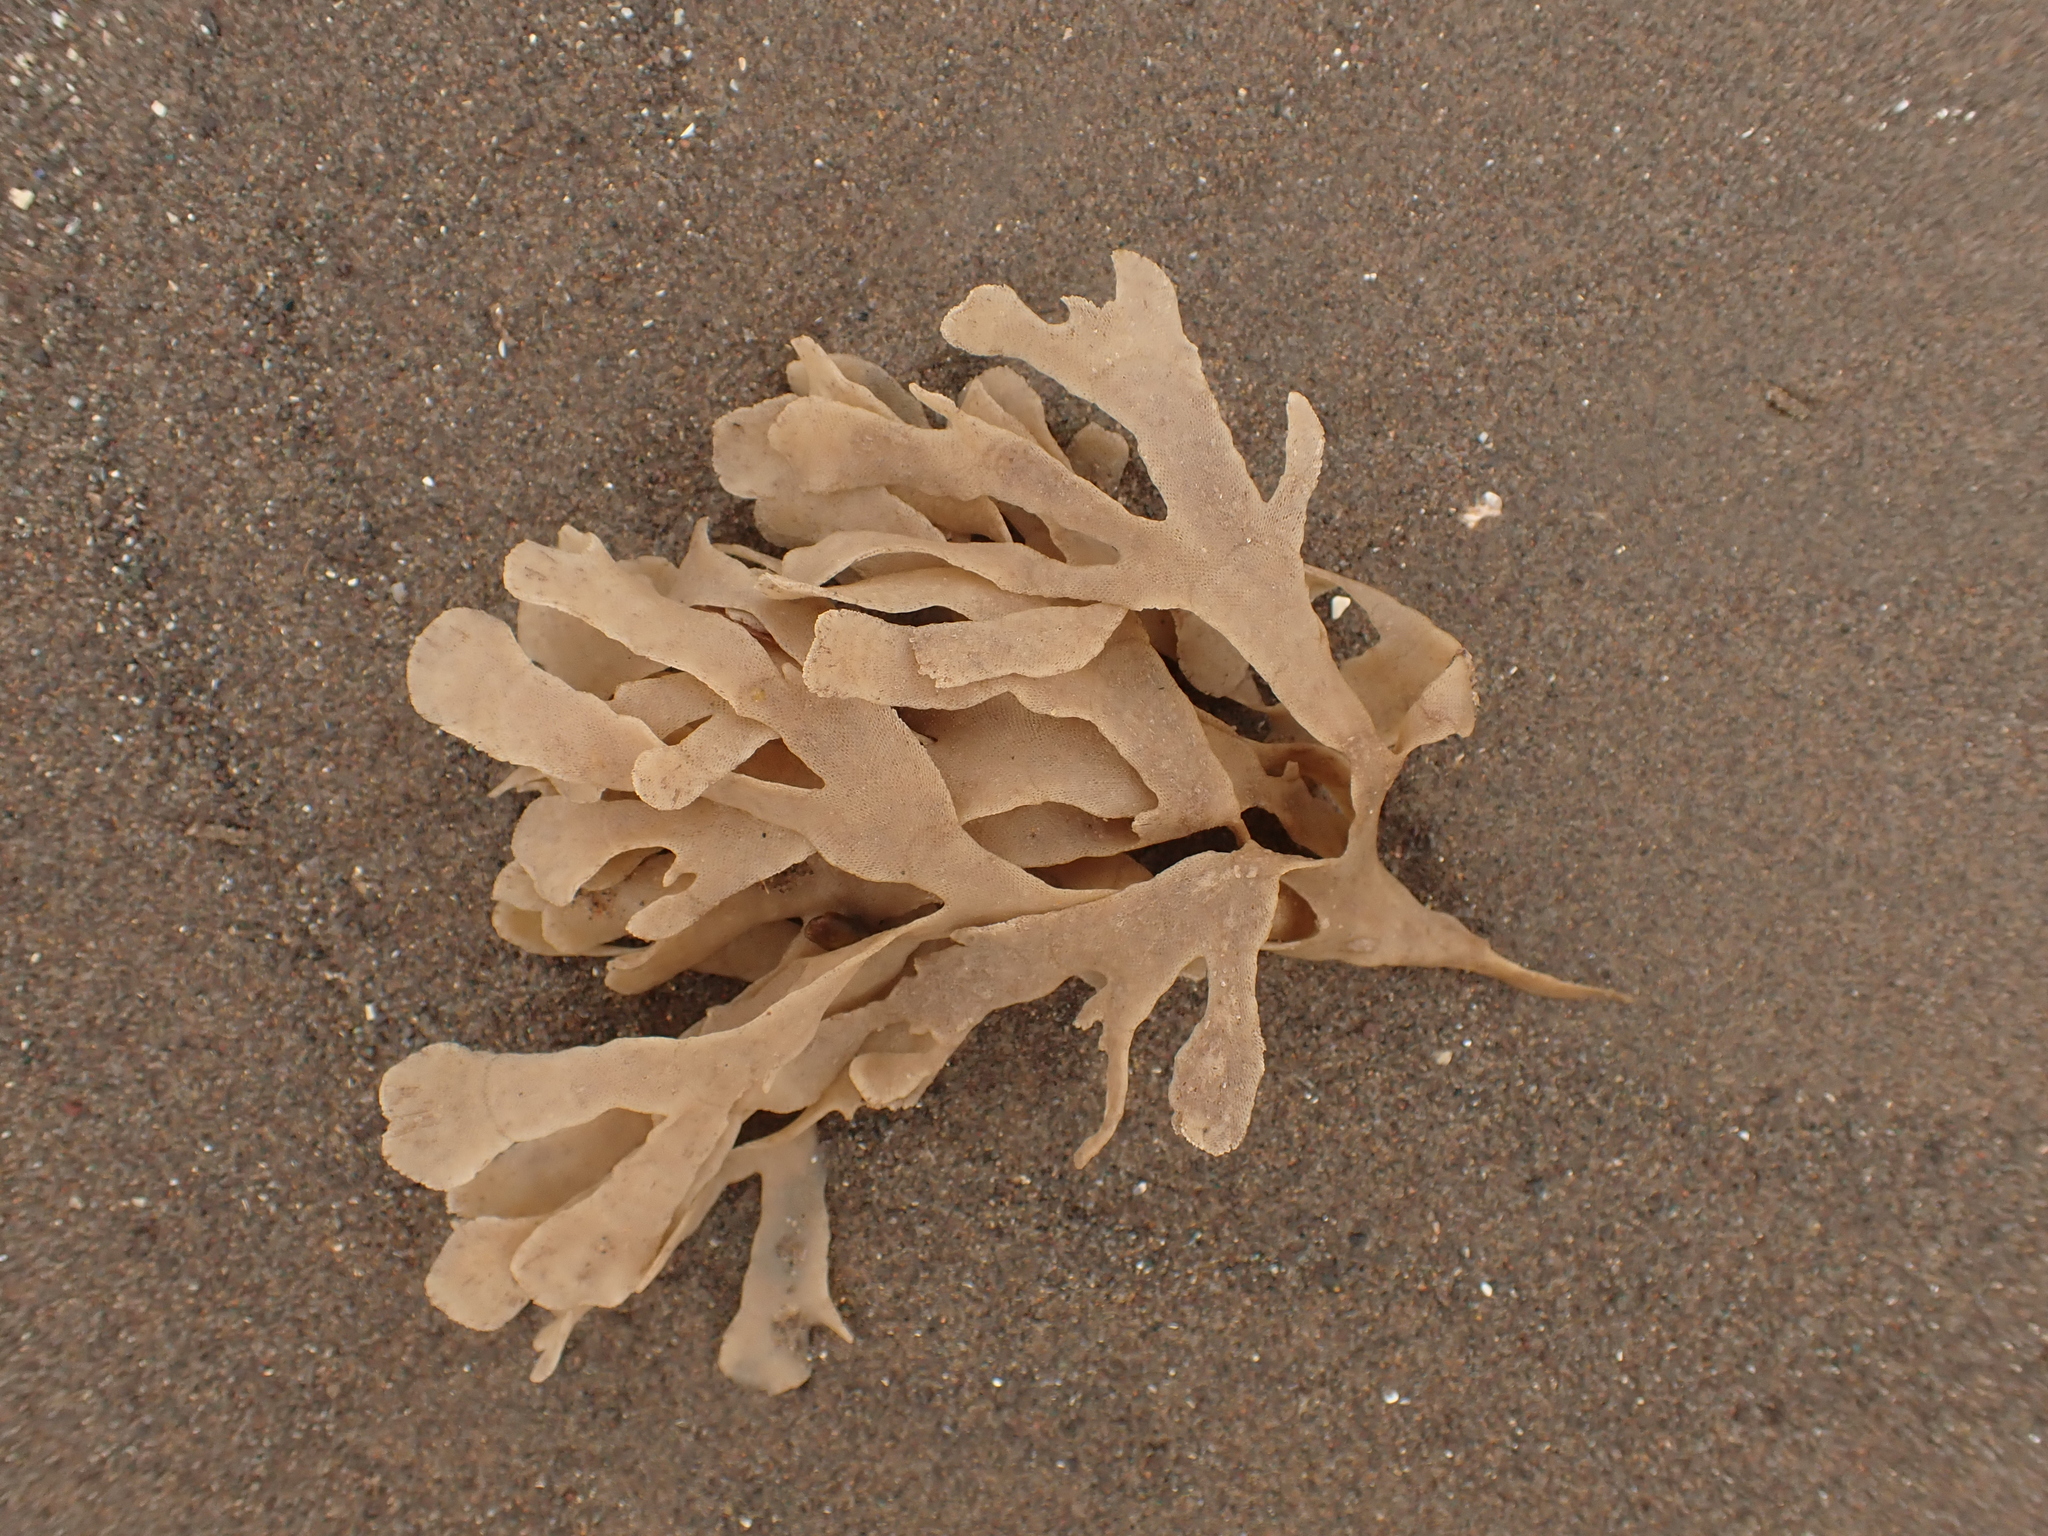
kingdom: Animalia
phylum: Bryozoa
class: Gymnolaemata
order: Cheilostomatida
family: Flustridae
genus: Flustra
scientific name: Flustra foliacea
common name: Hornwrack
